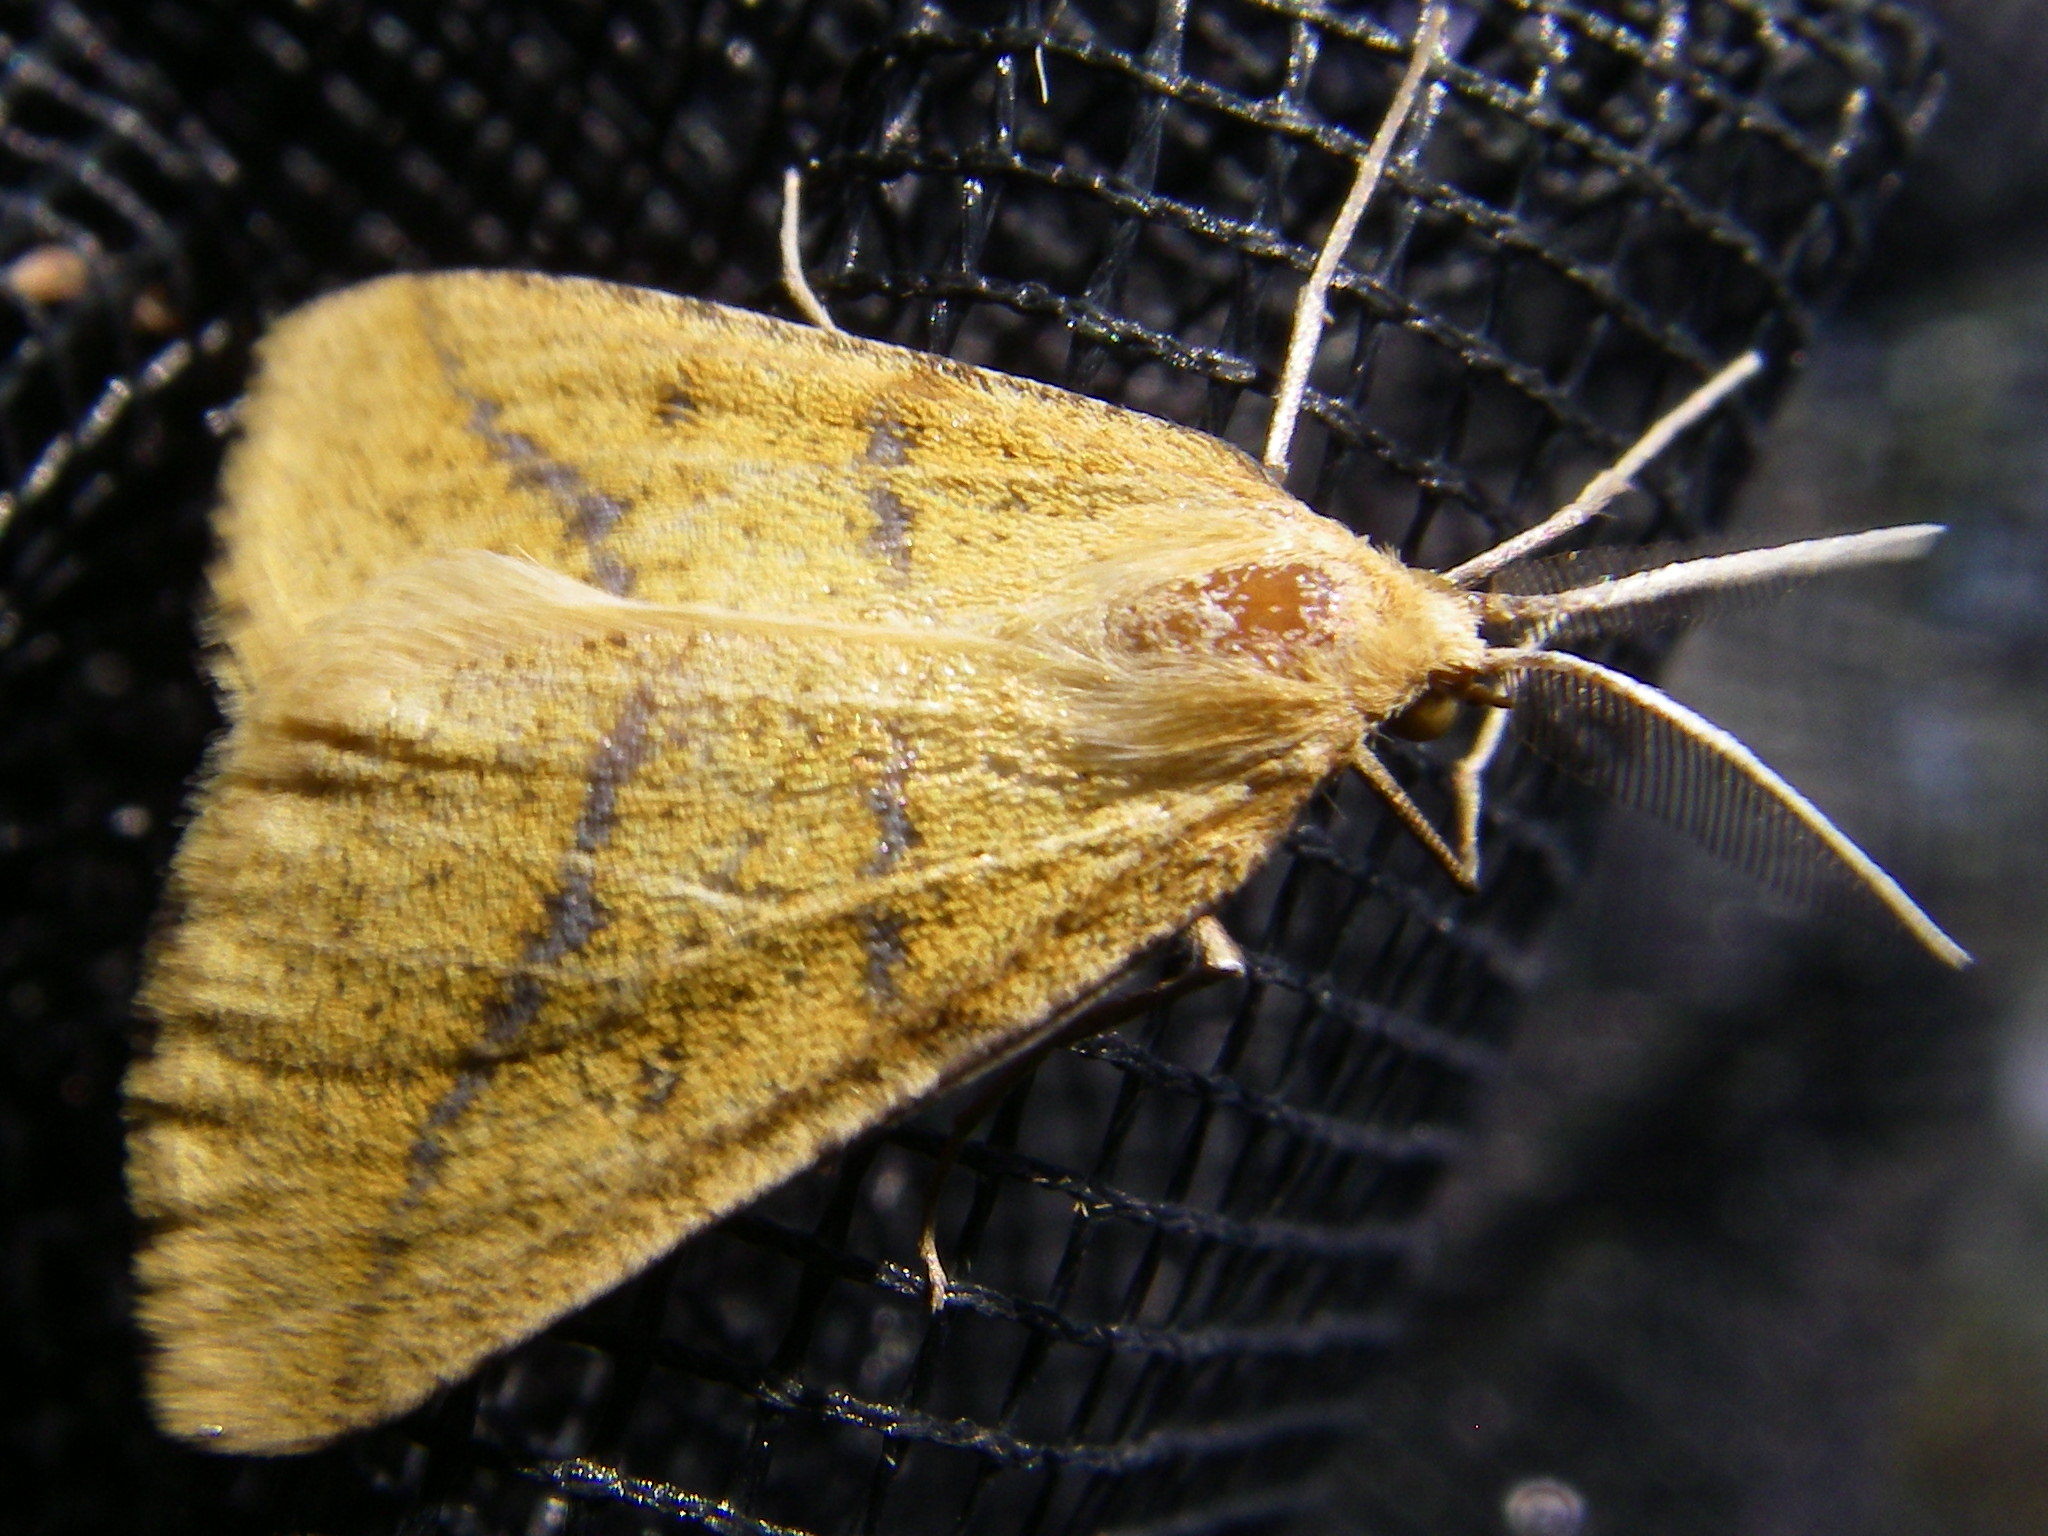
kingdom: Animalia
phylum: Arthropoda
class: Insecta
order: Lepidoptera
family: Geometridae
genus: Aspitates
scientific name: Aspitates ochrearia
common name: Yellow belle
